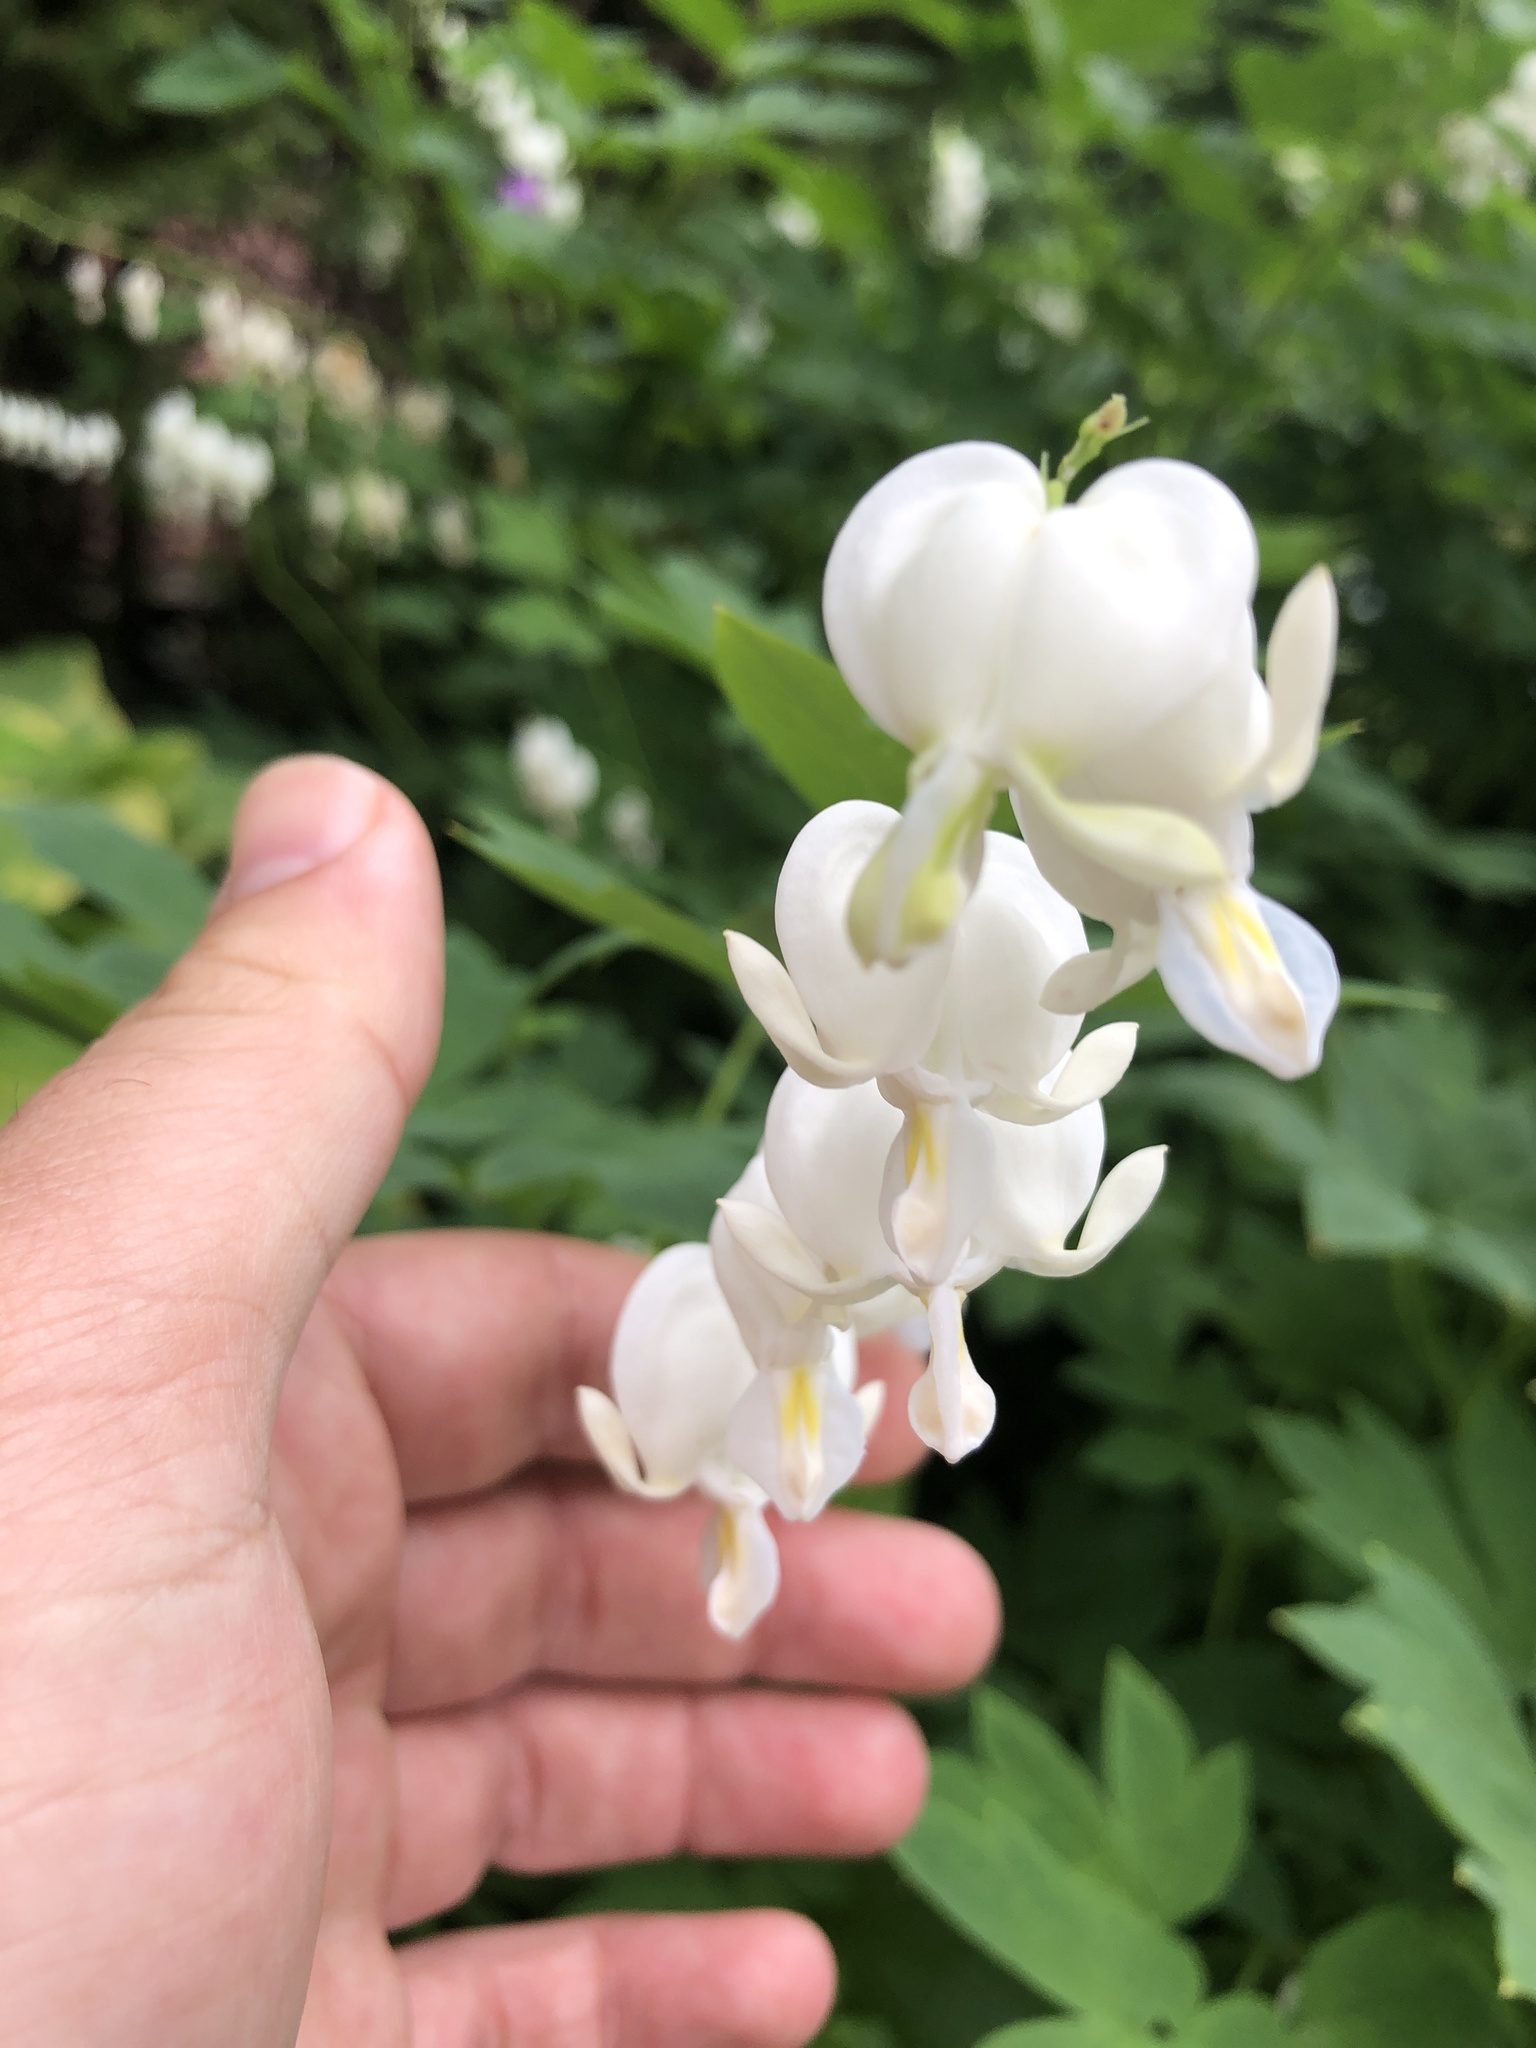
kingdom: Plantae
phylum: Tracheophyta
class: Magnoliopsida
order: Ranunculales
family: Papaveraceae
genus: Lamprocapnos
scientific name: Lamprocapnos spectabilis
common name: Asian bleeding-heart
